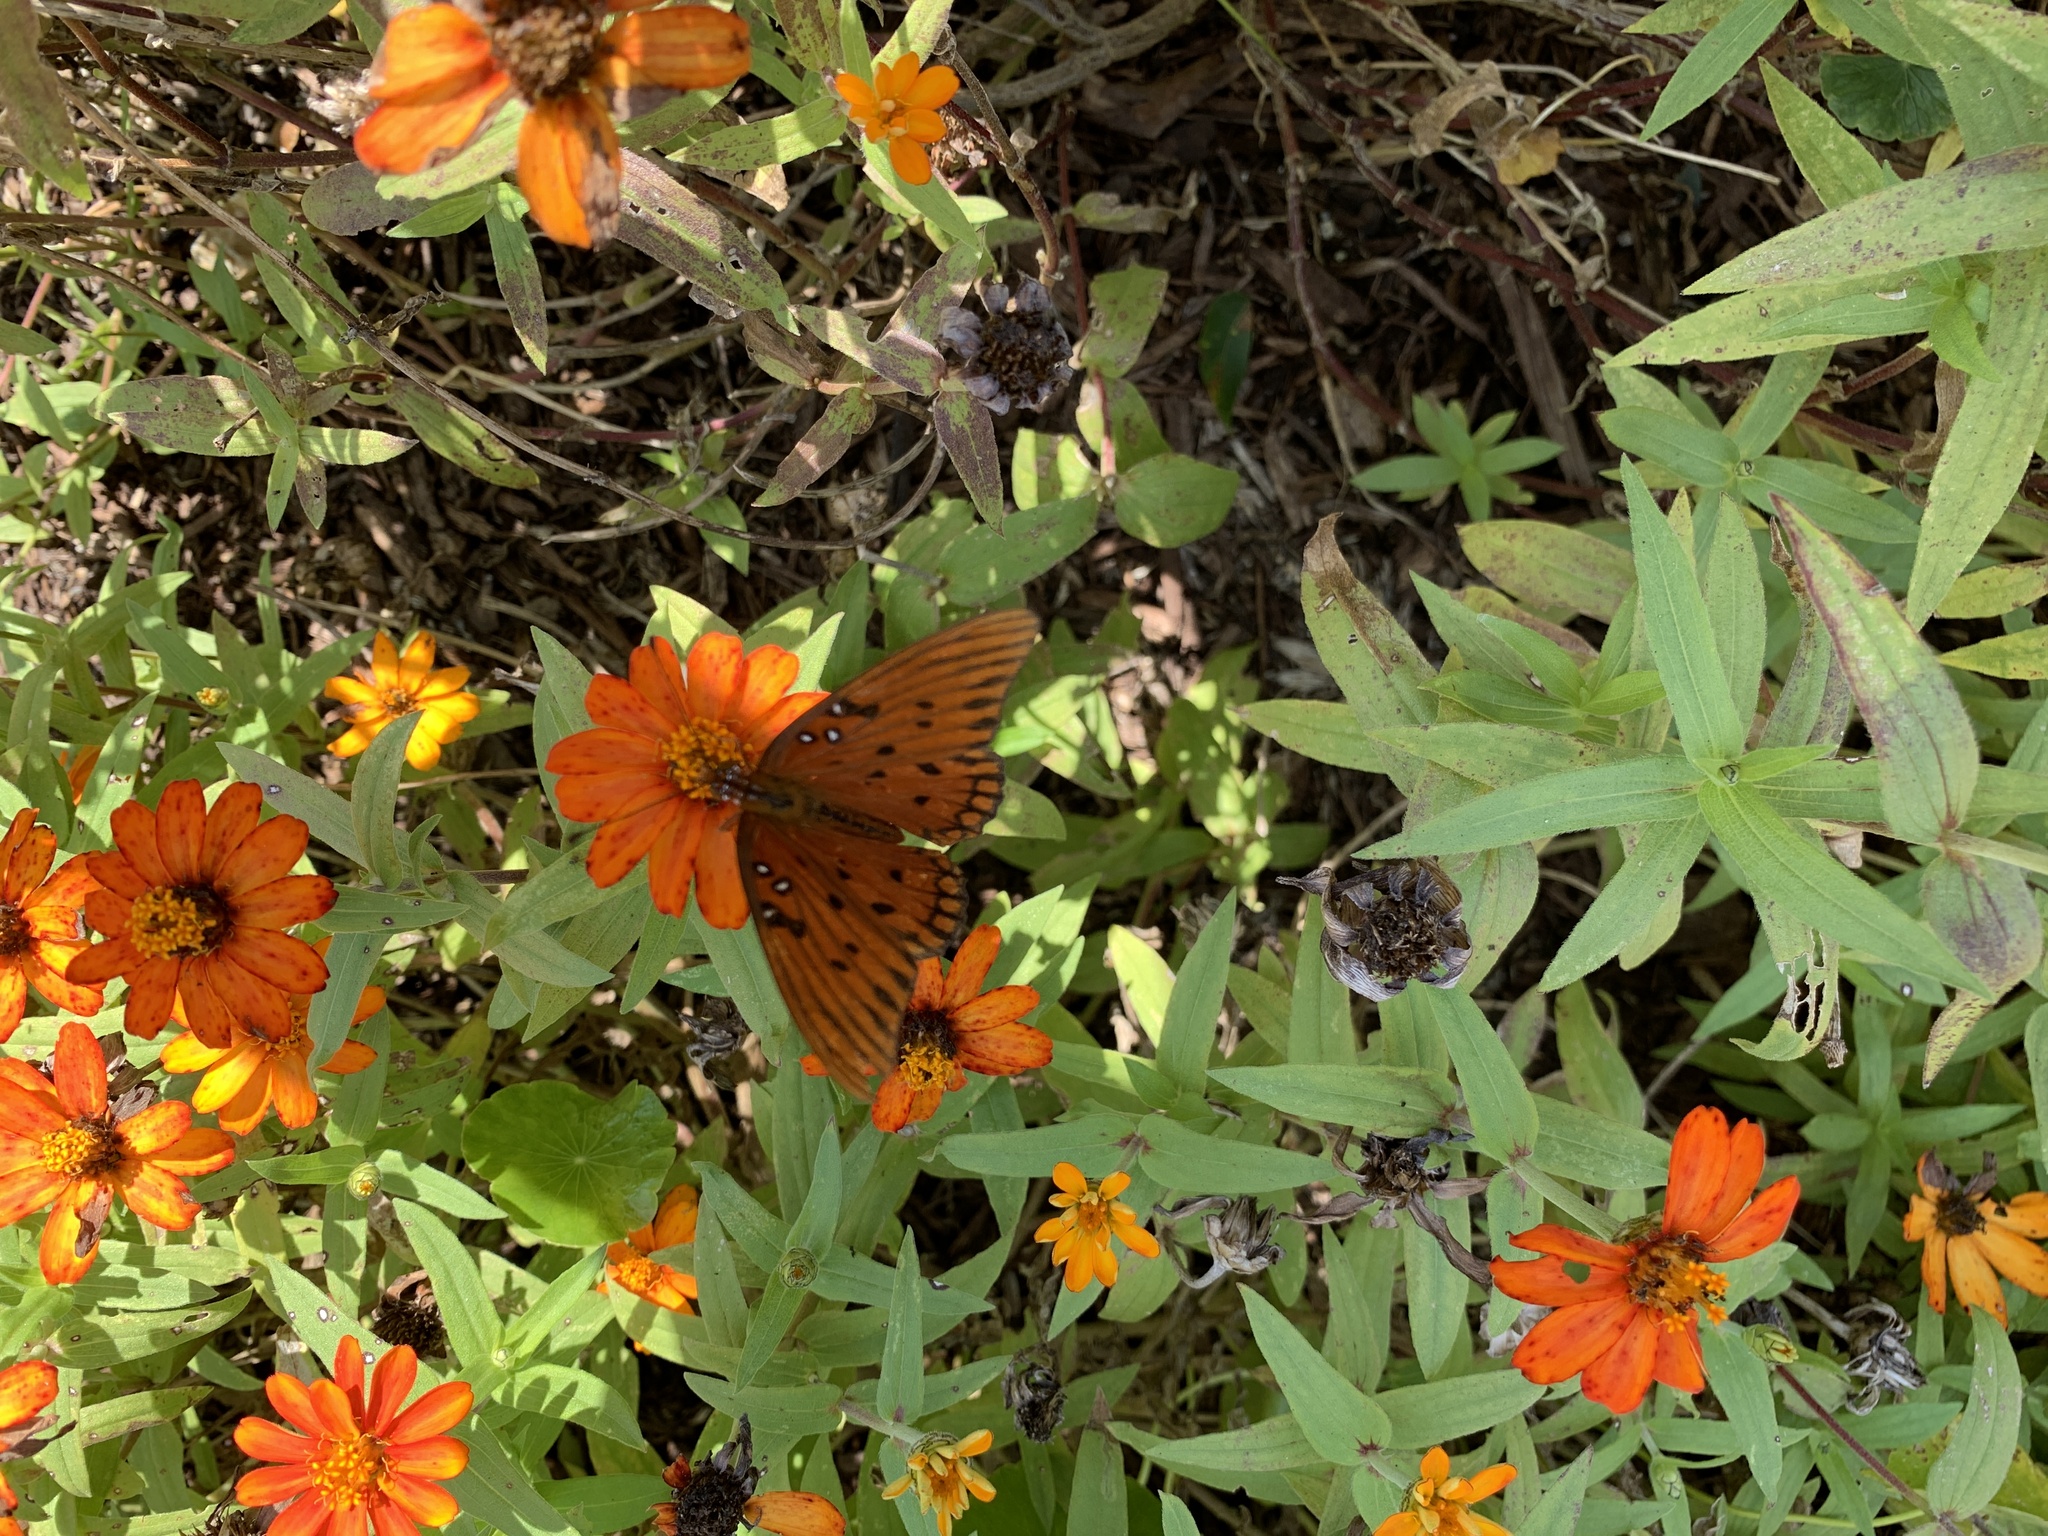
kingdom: Animalia
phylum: Arthropoda
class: Insecta
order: Lepidoptera
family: Nymphalidae
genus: Dione
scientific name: Dione vanillae
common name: Gulf fritillary
